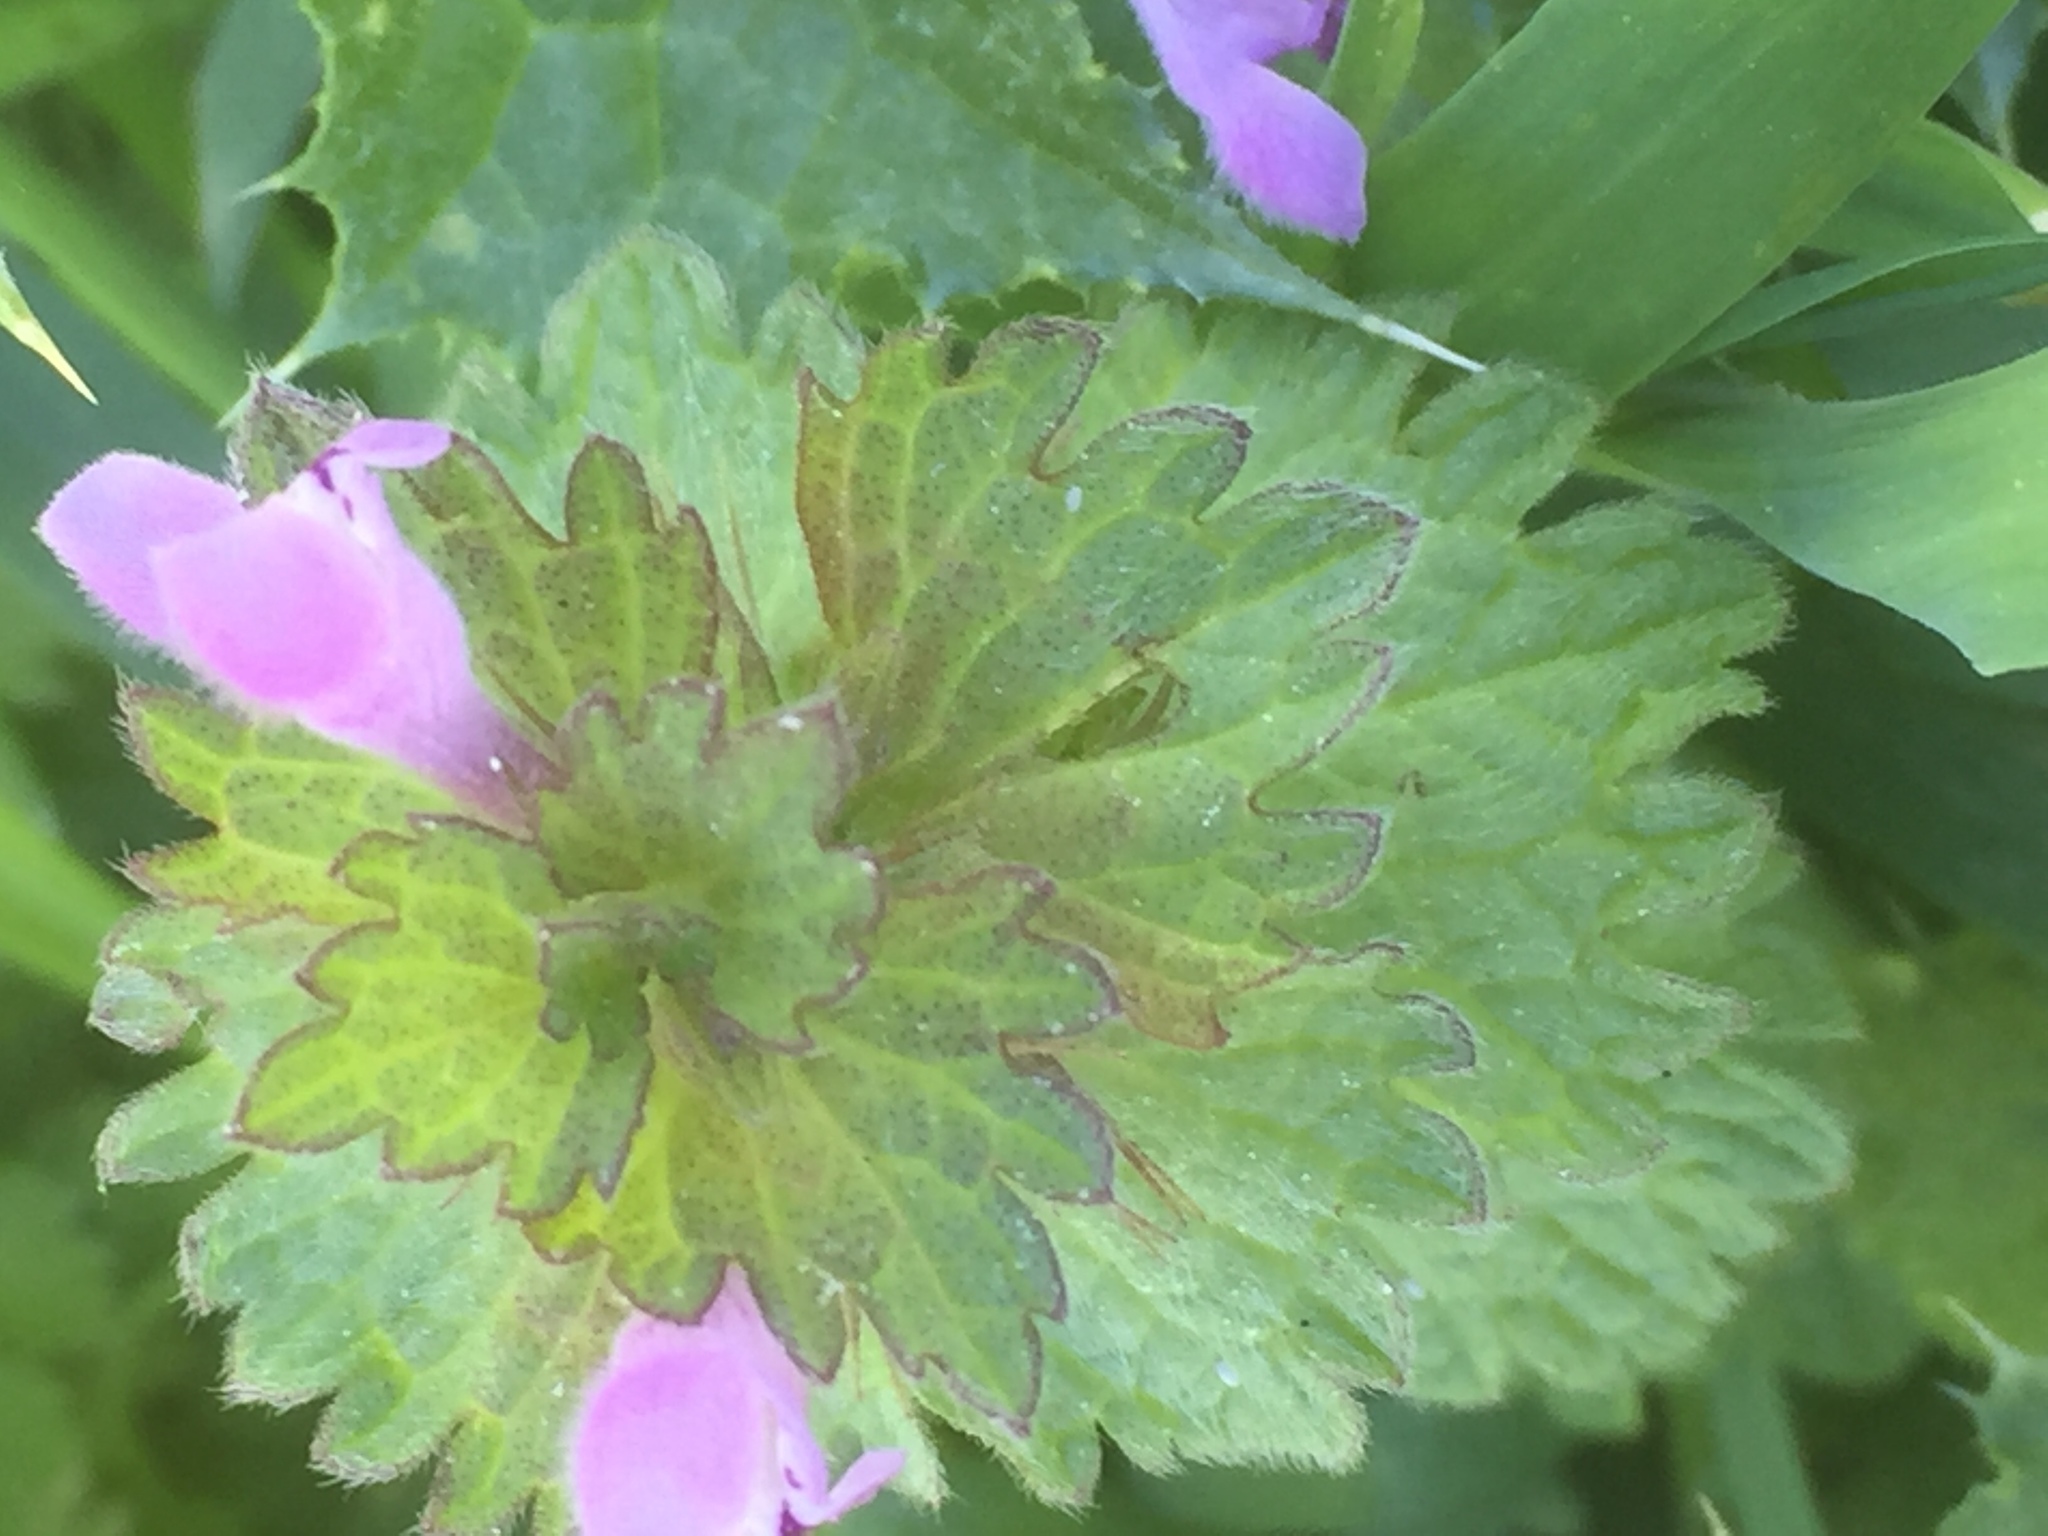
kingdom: Plantae
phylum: Tracheophyta
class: Magnoliopsida
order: Lamiales
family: Lamiaceae
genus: Lamium
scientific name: Lamium coutinhoi
